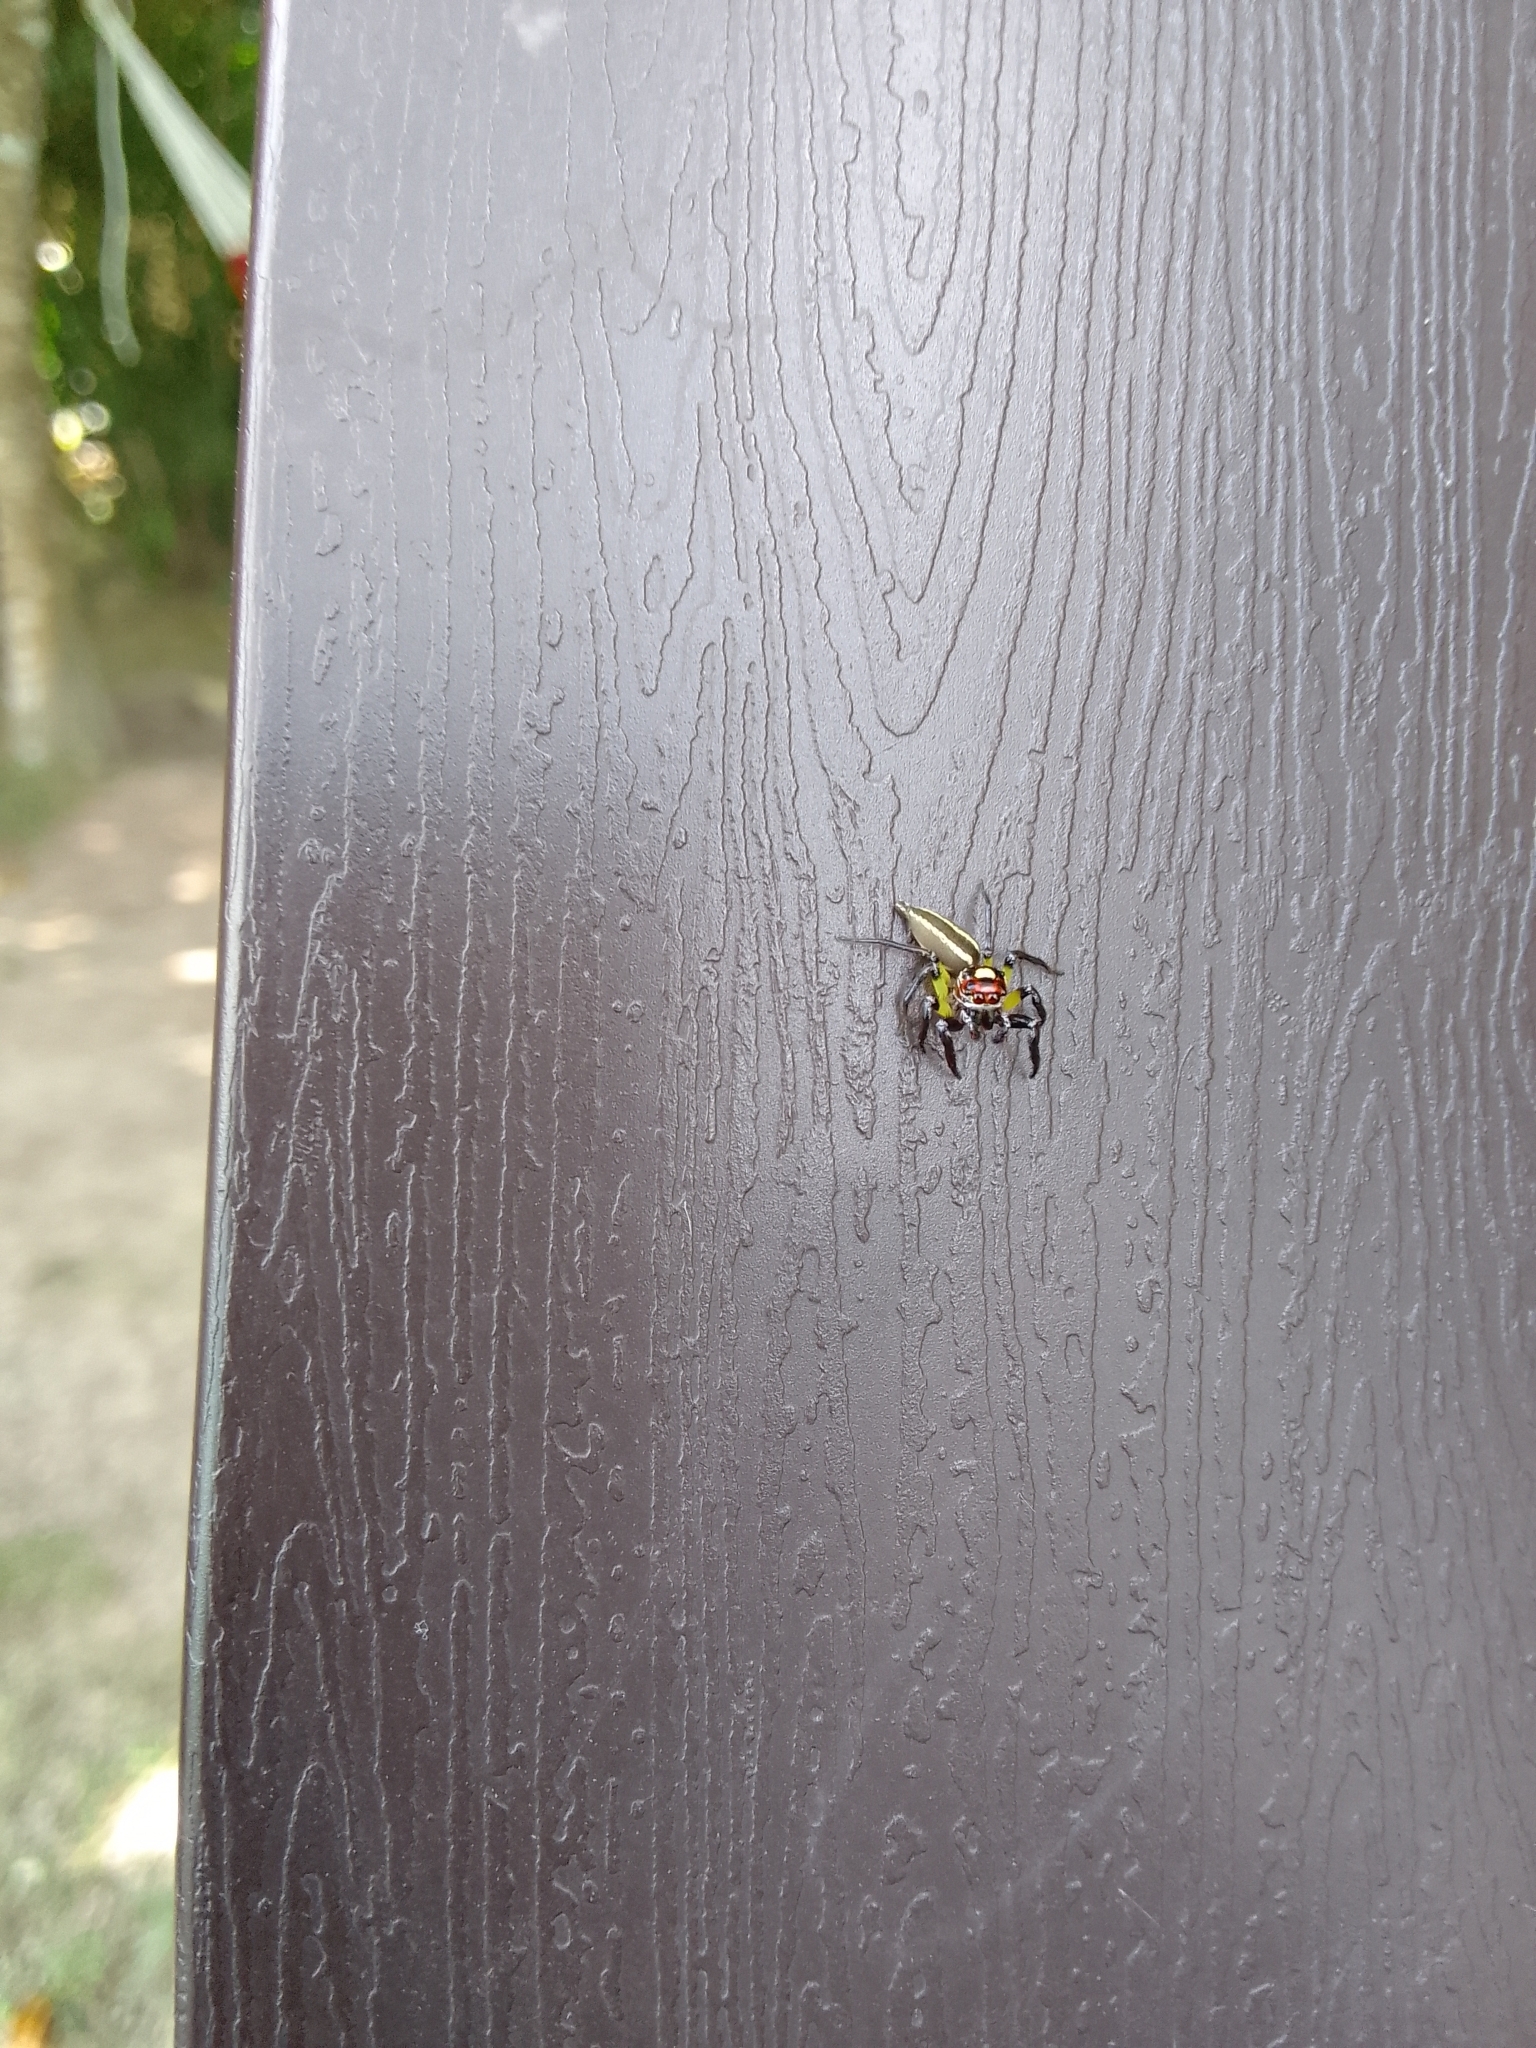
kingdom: Animalia
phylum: Arthropoda
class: Arachnida
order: Araneae
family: Salticidae
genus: Colonus
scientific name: Colonus sylvanus
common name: Jumping spiders
